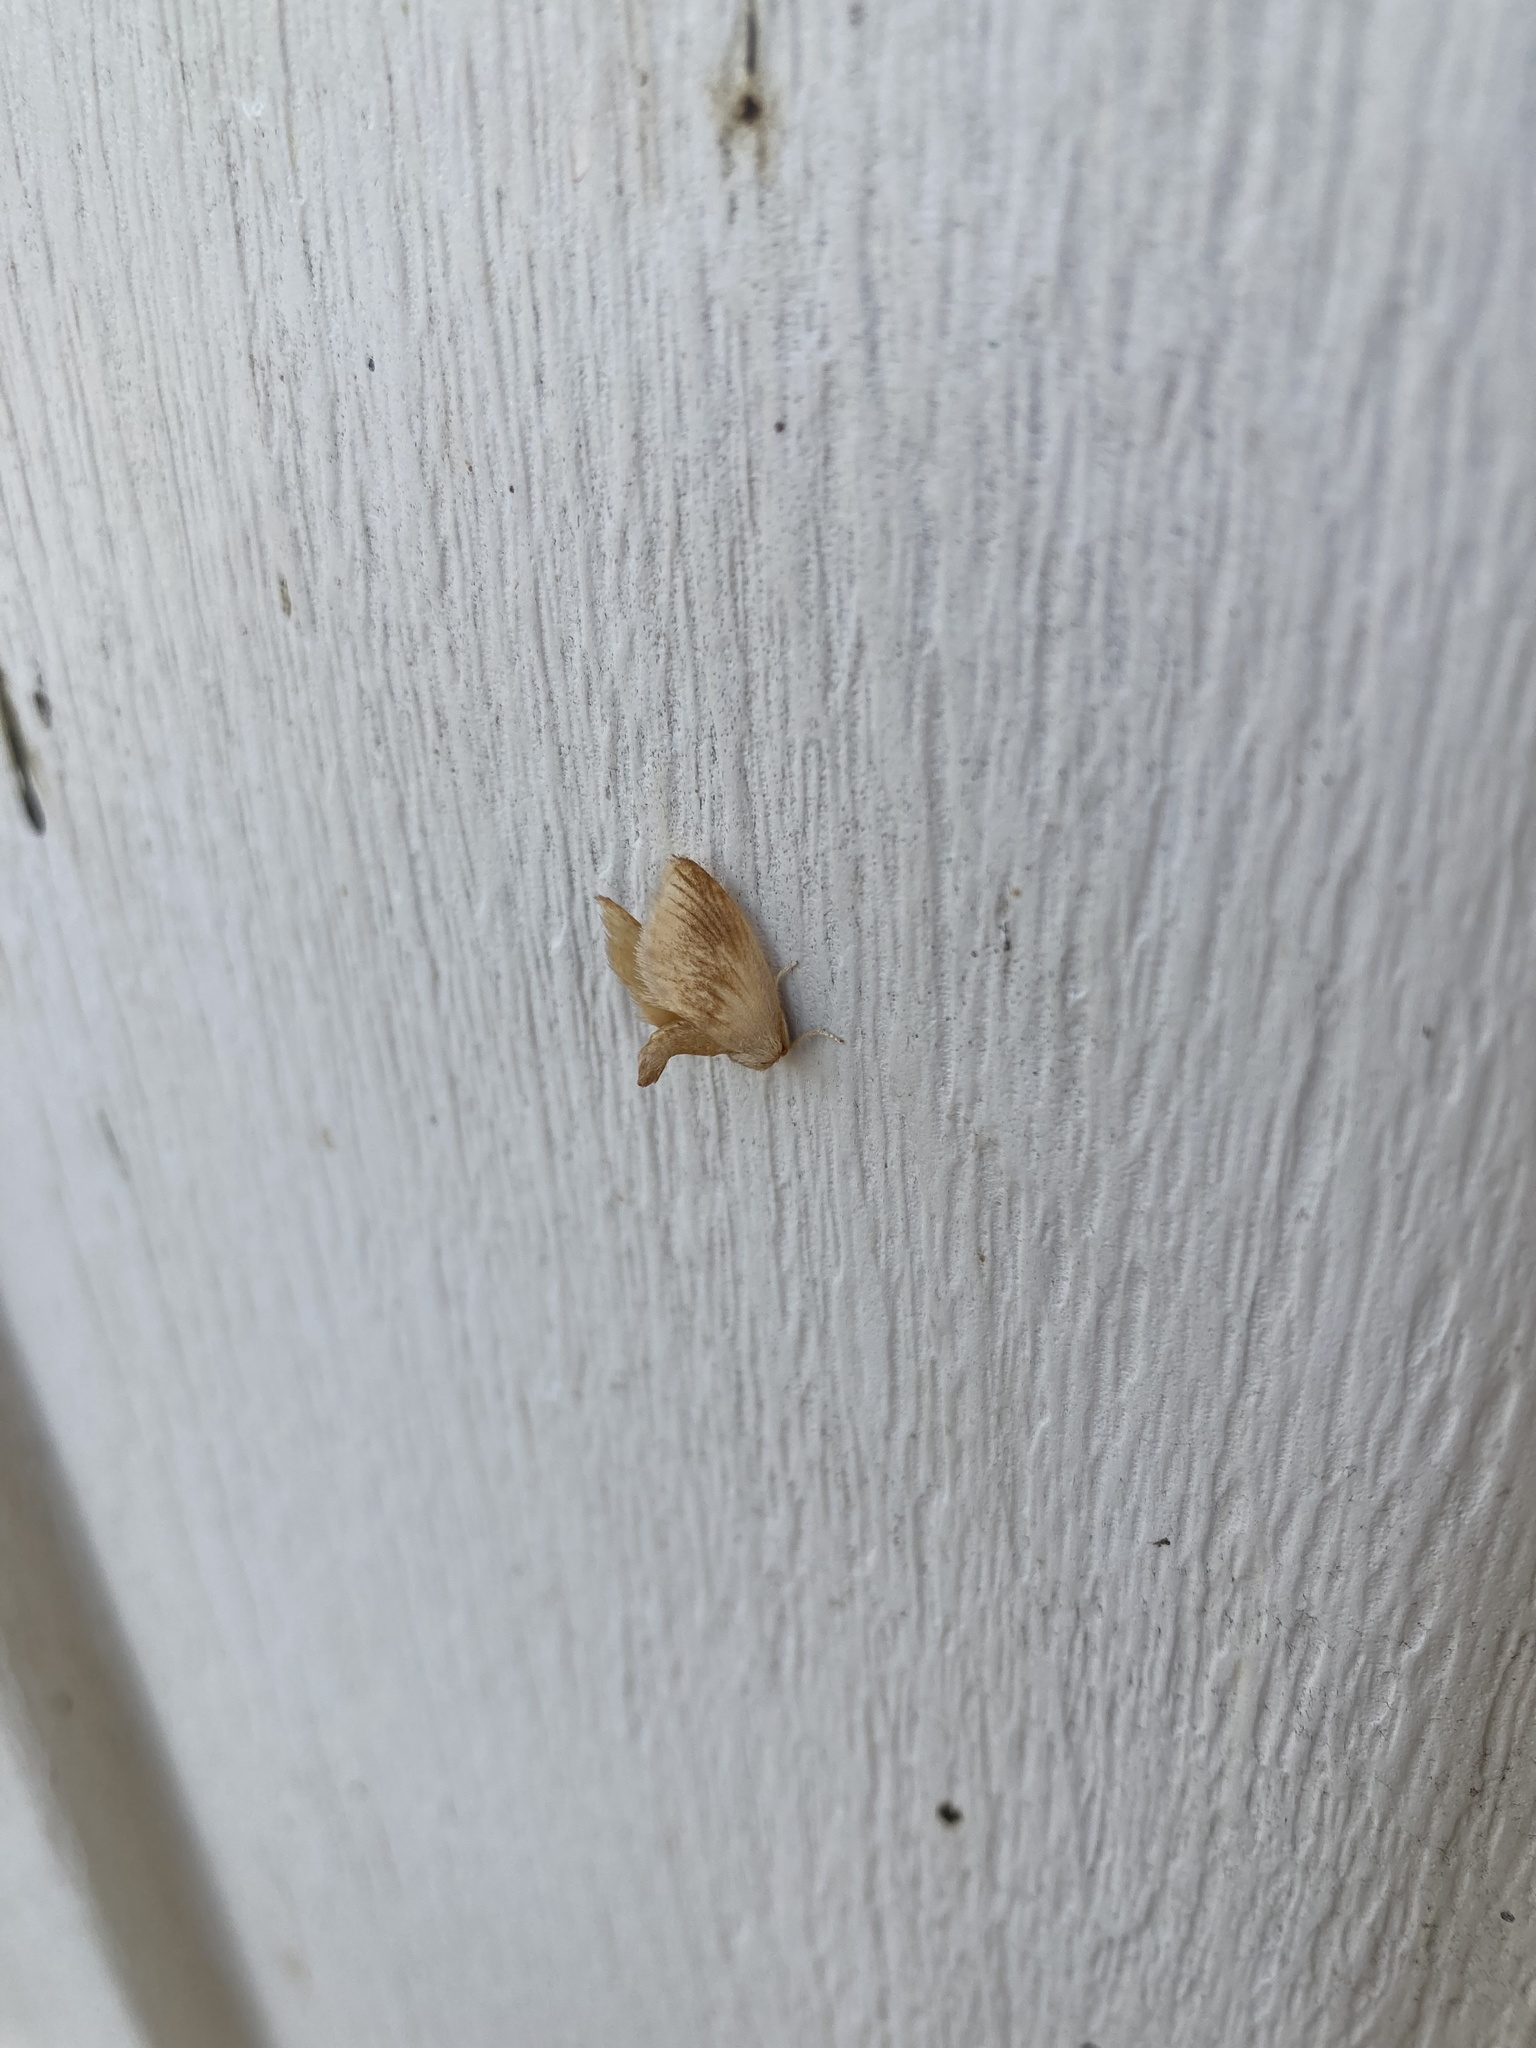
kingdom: Animalia
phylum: Arthropoda
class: Insecta
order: Lepidoptera
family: Limacodidae
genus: Tortricidia
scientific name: Tortricidia testacea
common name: Early button slug moth
